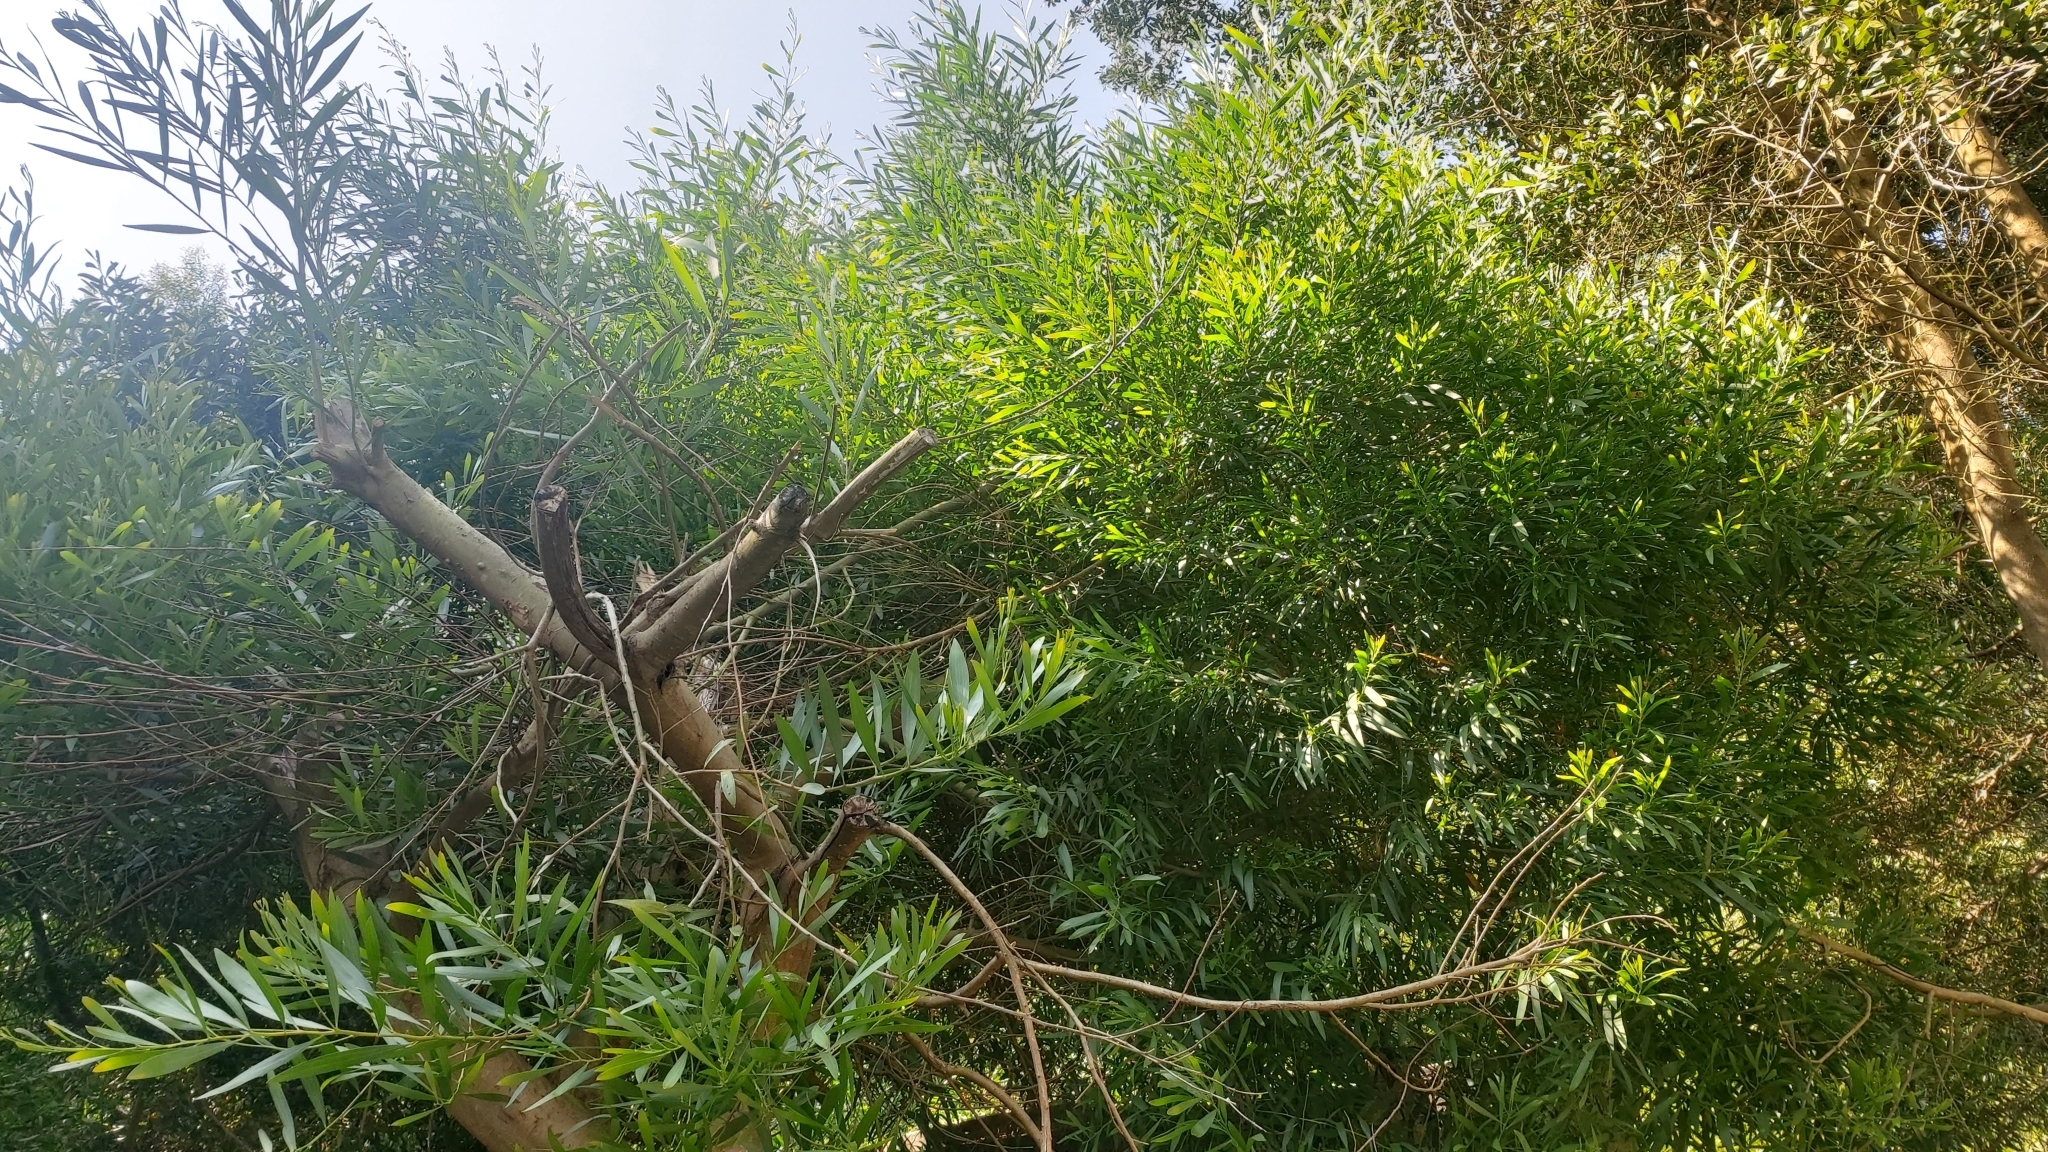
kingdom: Plantae
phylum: Tracheophyta
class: Magnoliopsida
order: Fabales
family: Fabaceae
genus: Acacia
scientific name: Acacia longifolia
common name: Sydney golden wattle
